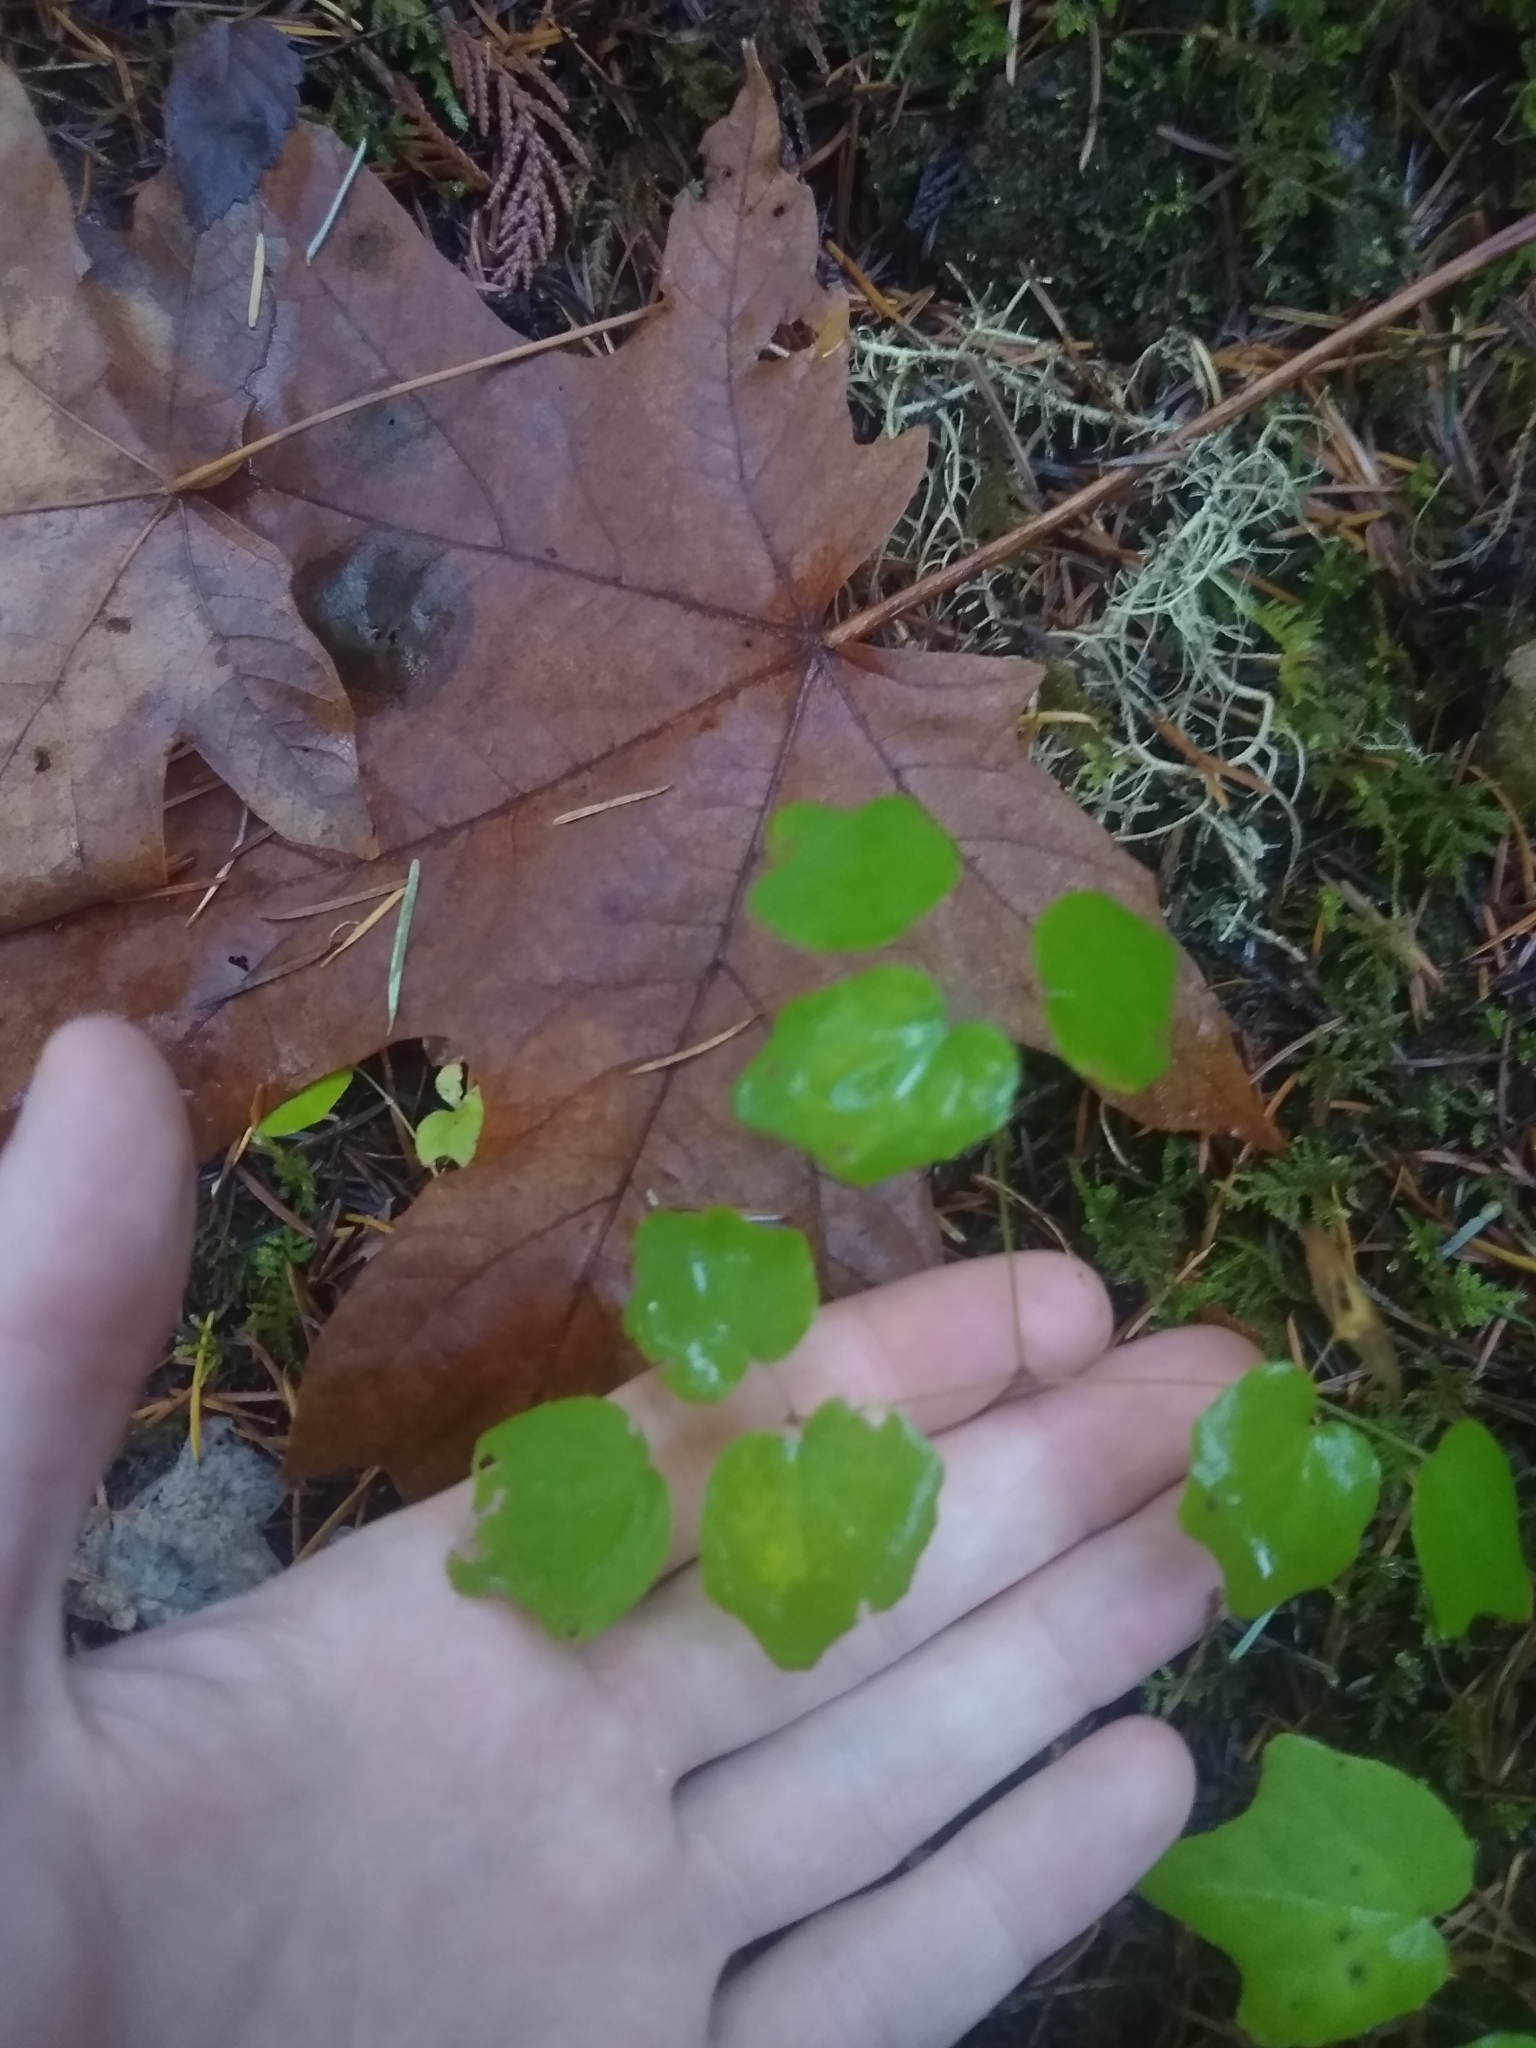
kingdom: Plantae
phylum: Tracheophyta
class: Magnoliopsida
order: Ranunculales
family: Berberidaceae
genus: Vancouveria
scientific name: Vancouveria hexandra
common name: Northern inside-out-flower
